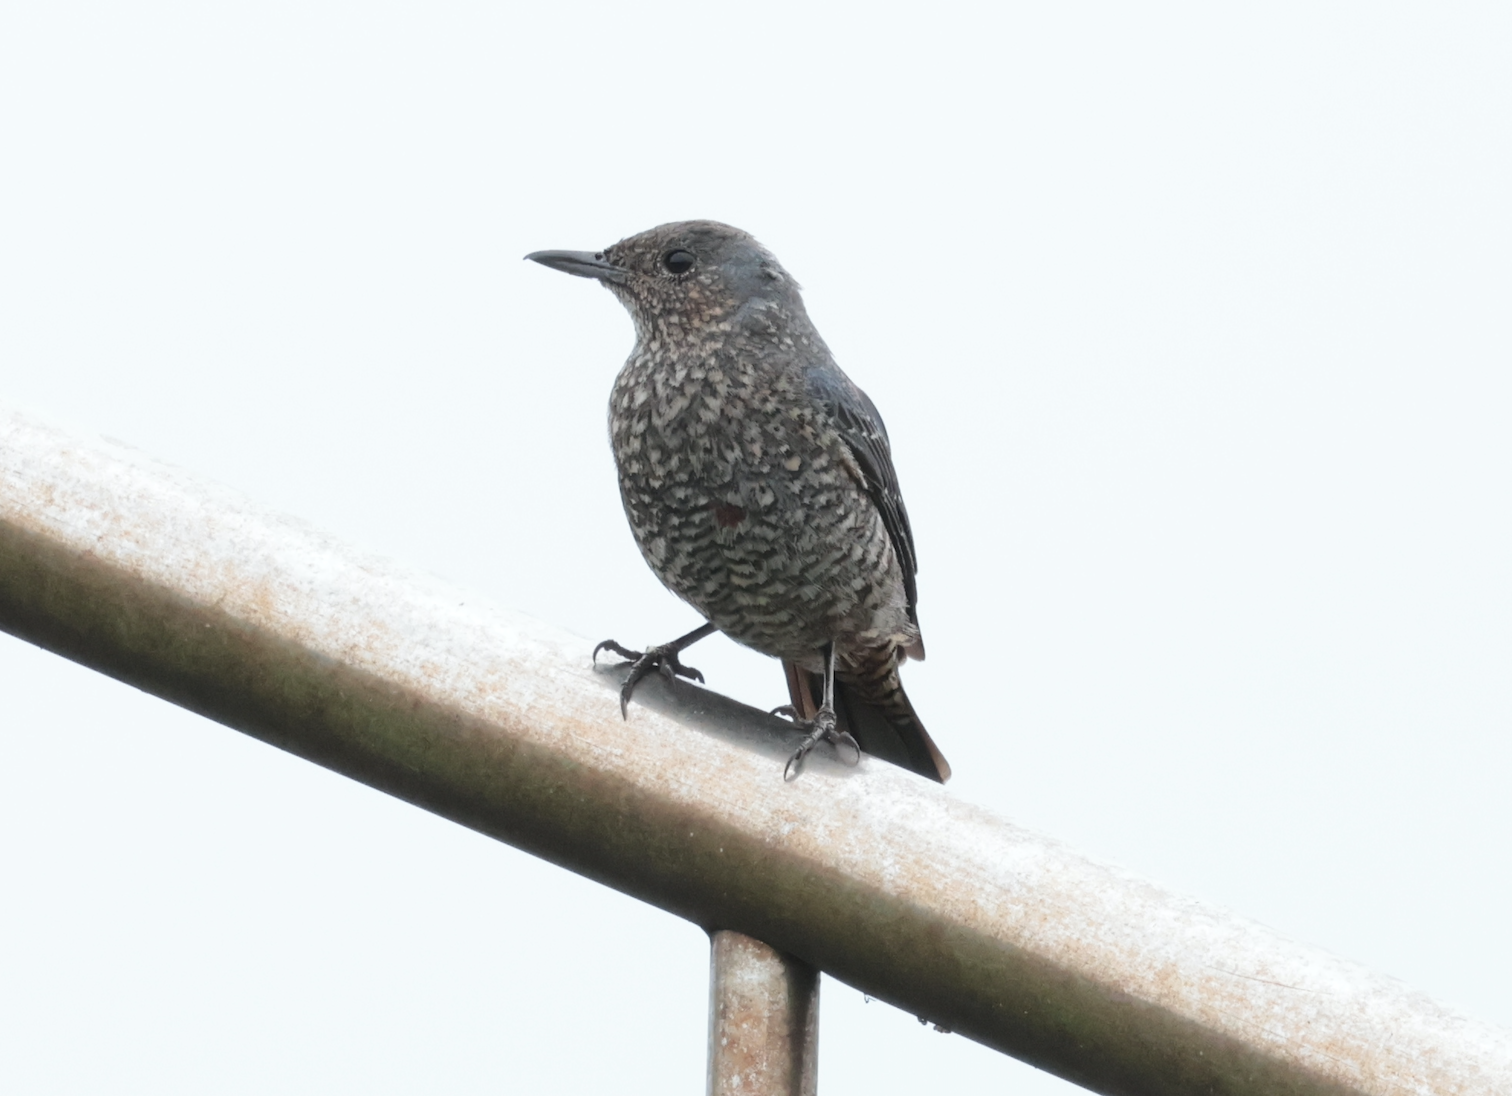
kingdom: Animalia
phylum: Chordata
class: Aves
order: Passeriformes
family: Muscicapidae
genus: Monticola
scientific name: Monticola solitarius
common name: Blue rock thrush
